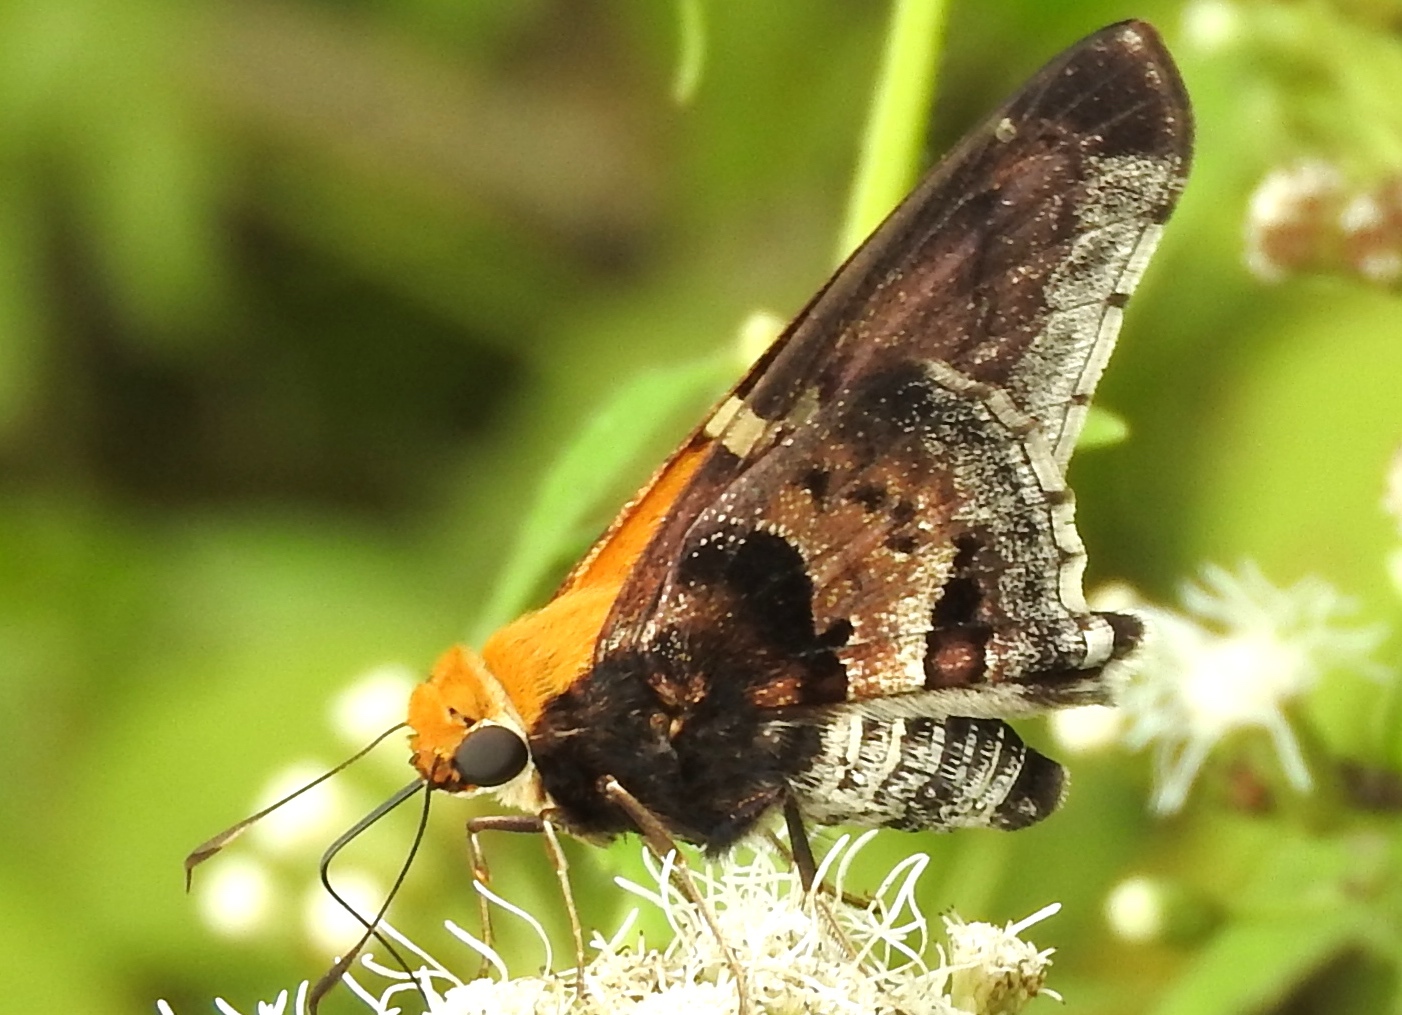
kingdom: Animalia
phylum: Arthropoda
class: Insecta
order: Lepidoptera
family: Hesperiidae
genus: Proteides
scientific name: Proteides mercurius
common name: Mercurial skipper
